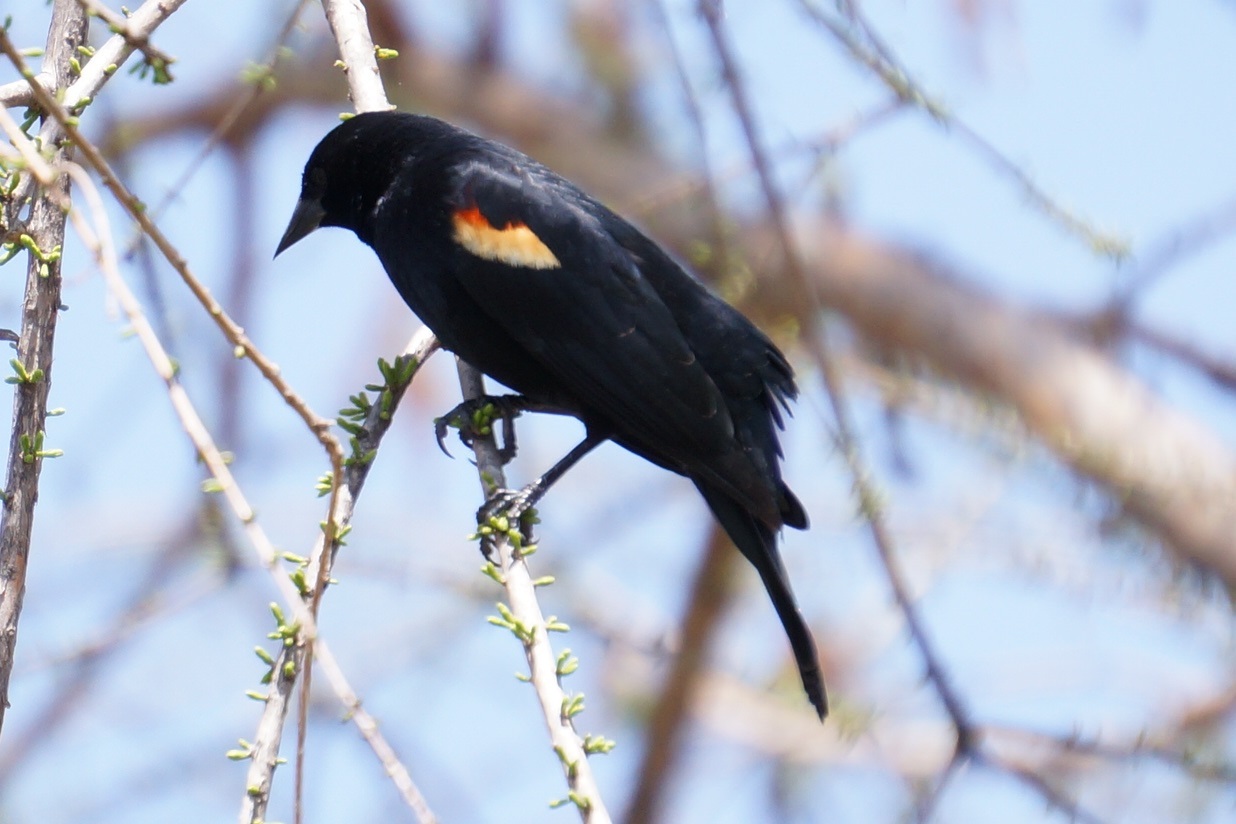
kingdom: Animalia
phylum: Chordata
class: Aves
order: Passeriformes
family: Icteridae
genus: Agelaius
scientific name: Agelaius phoeniceus
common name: Red-winged blackbird
